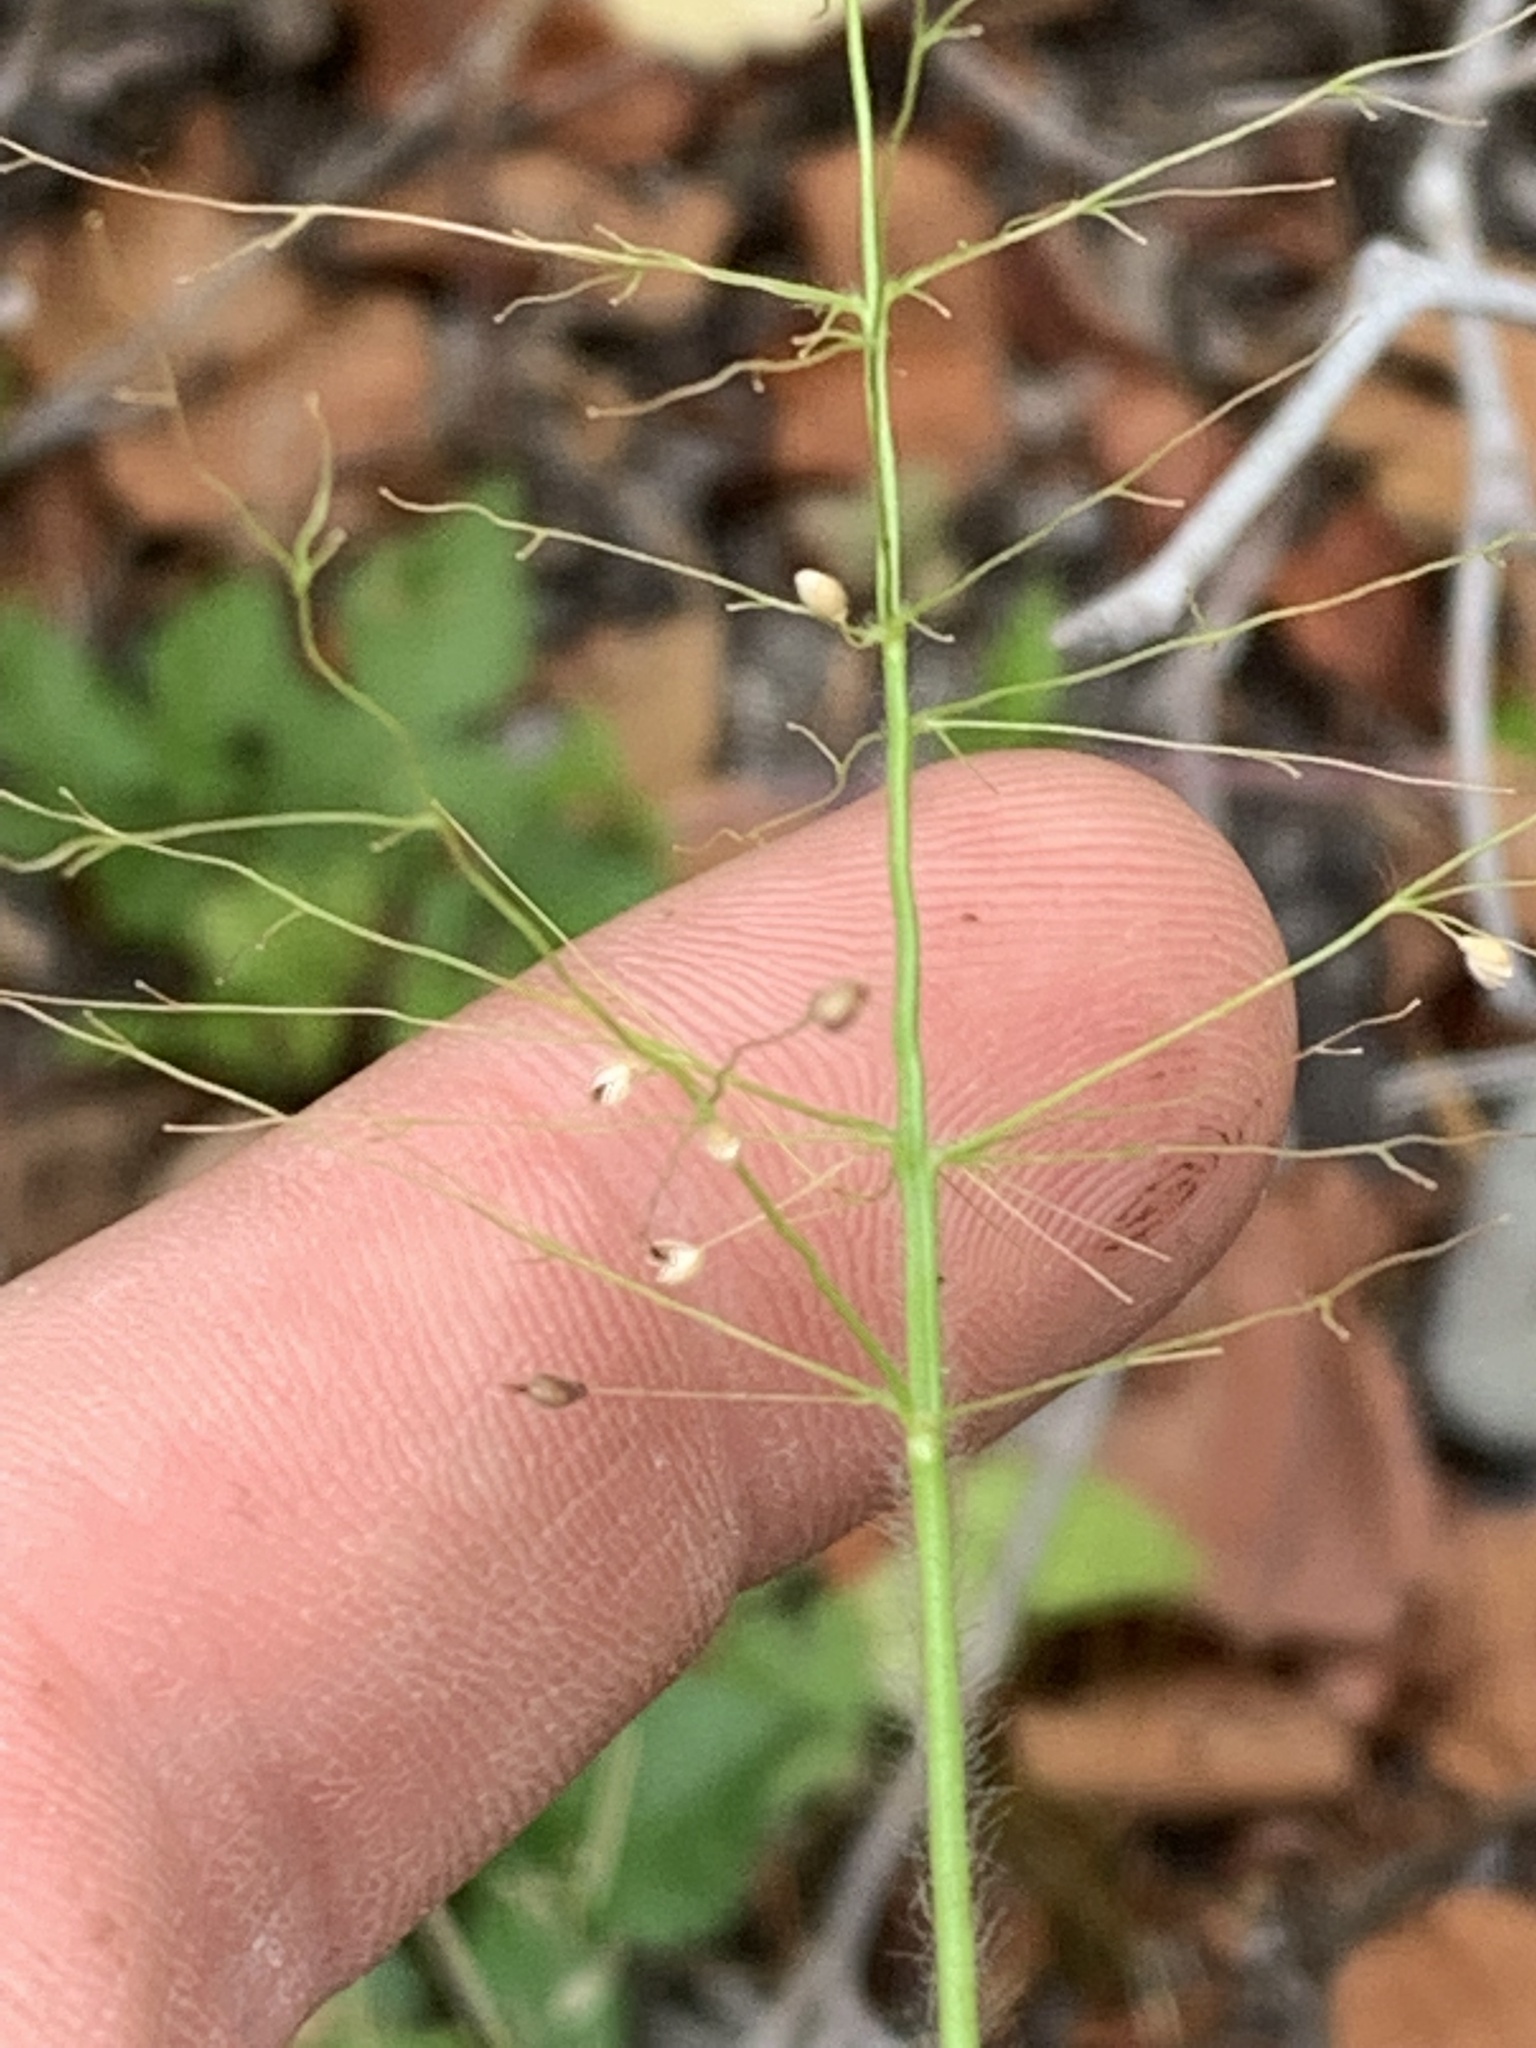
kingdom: Plantae
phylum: Tracheophyta
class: Liliopsida
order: Poales
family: Poaceae
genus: Dichanthelium
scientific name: Dichanthelium acuminatum
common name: Hairy panic grass
